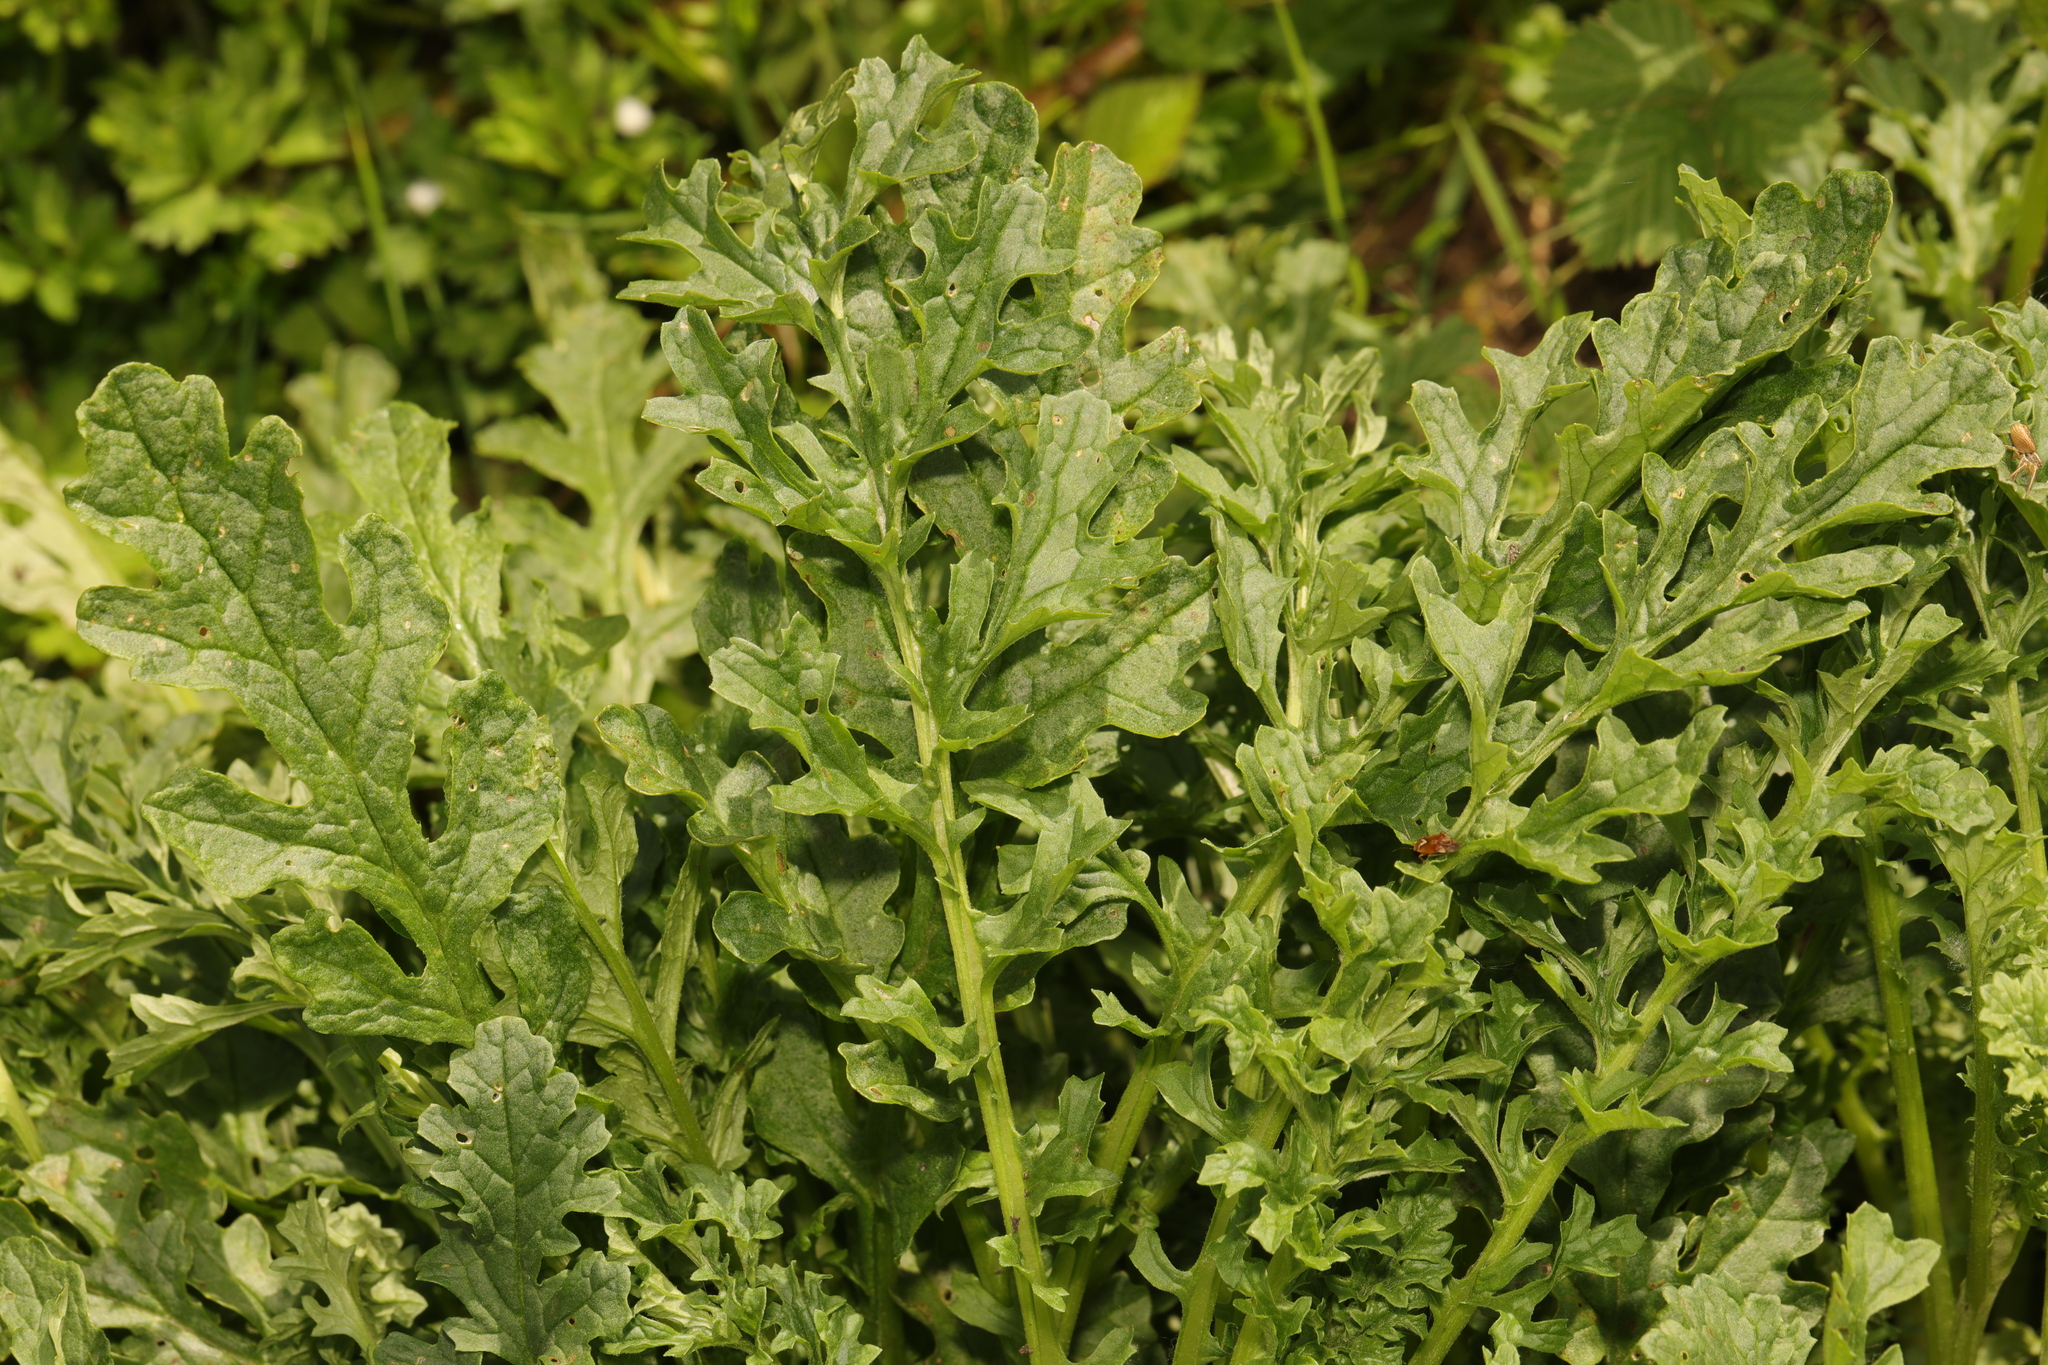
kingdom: Plantae
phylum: Tracheophyta
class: Magnoliopsida
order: Asterales
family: Asteraceae
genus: Jacobaea
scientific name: Jacobaea vulgaris
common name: Stinking willie
